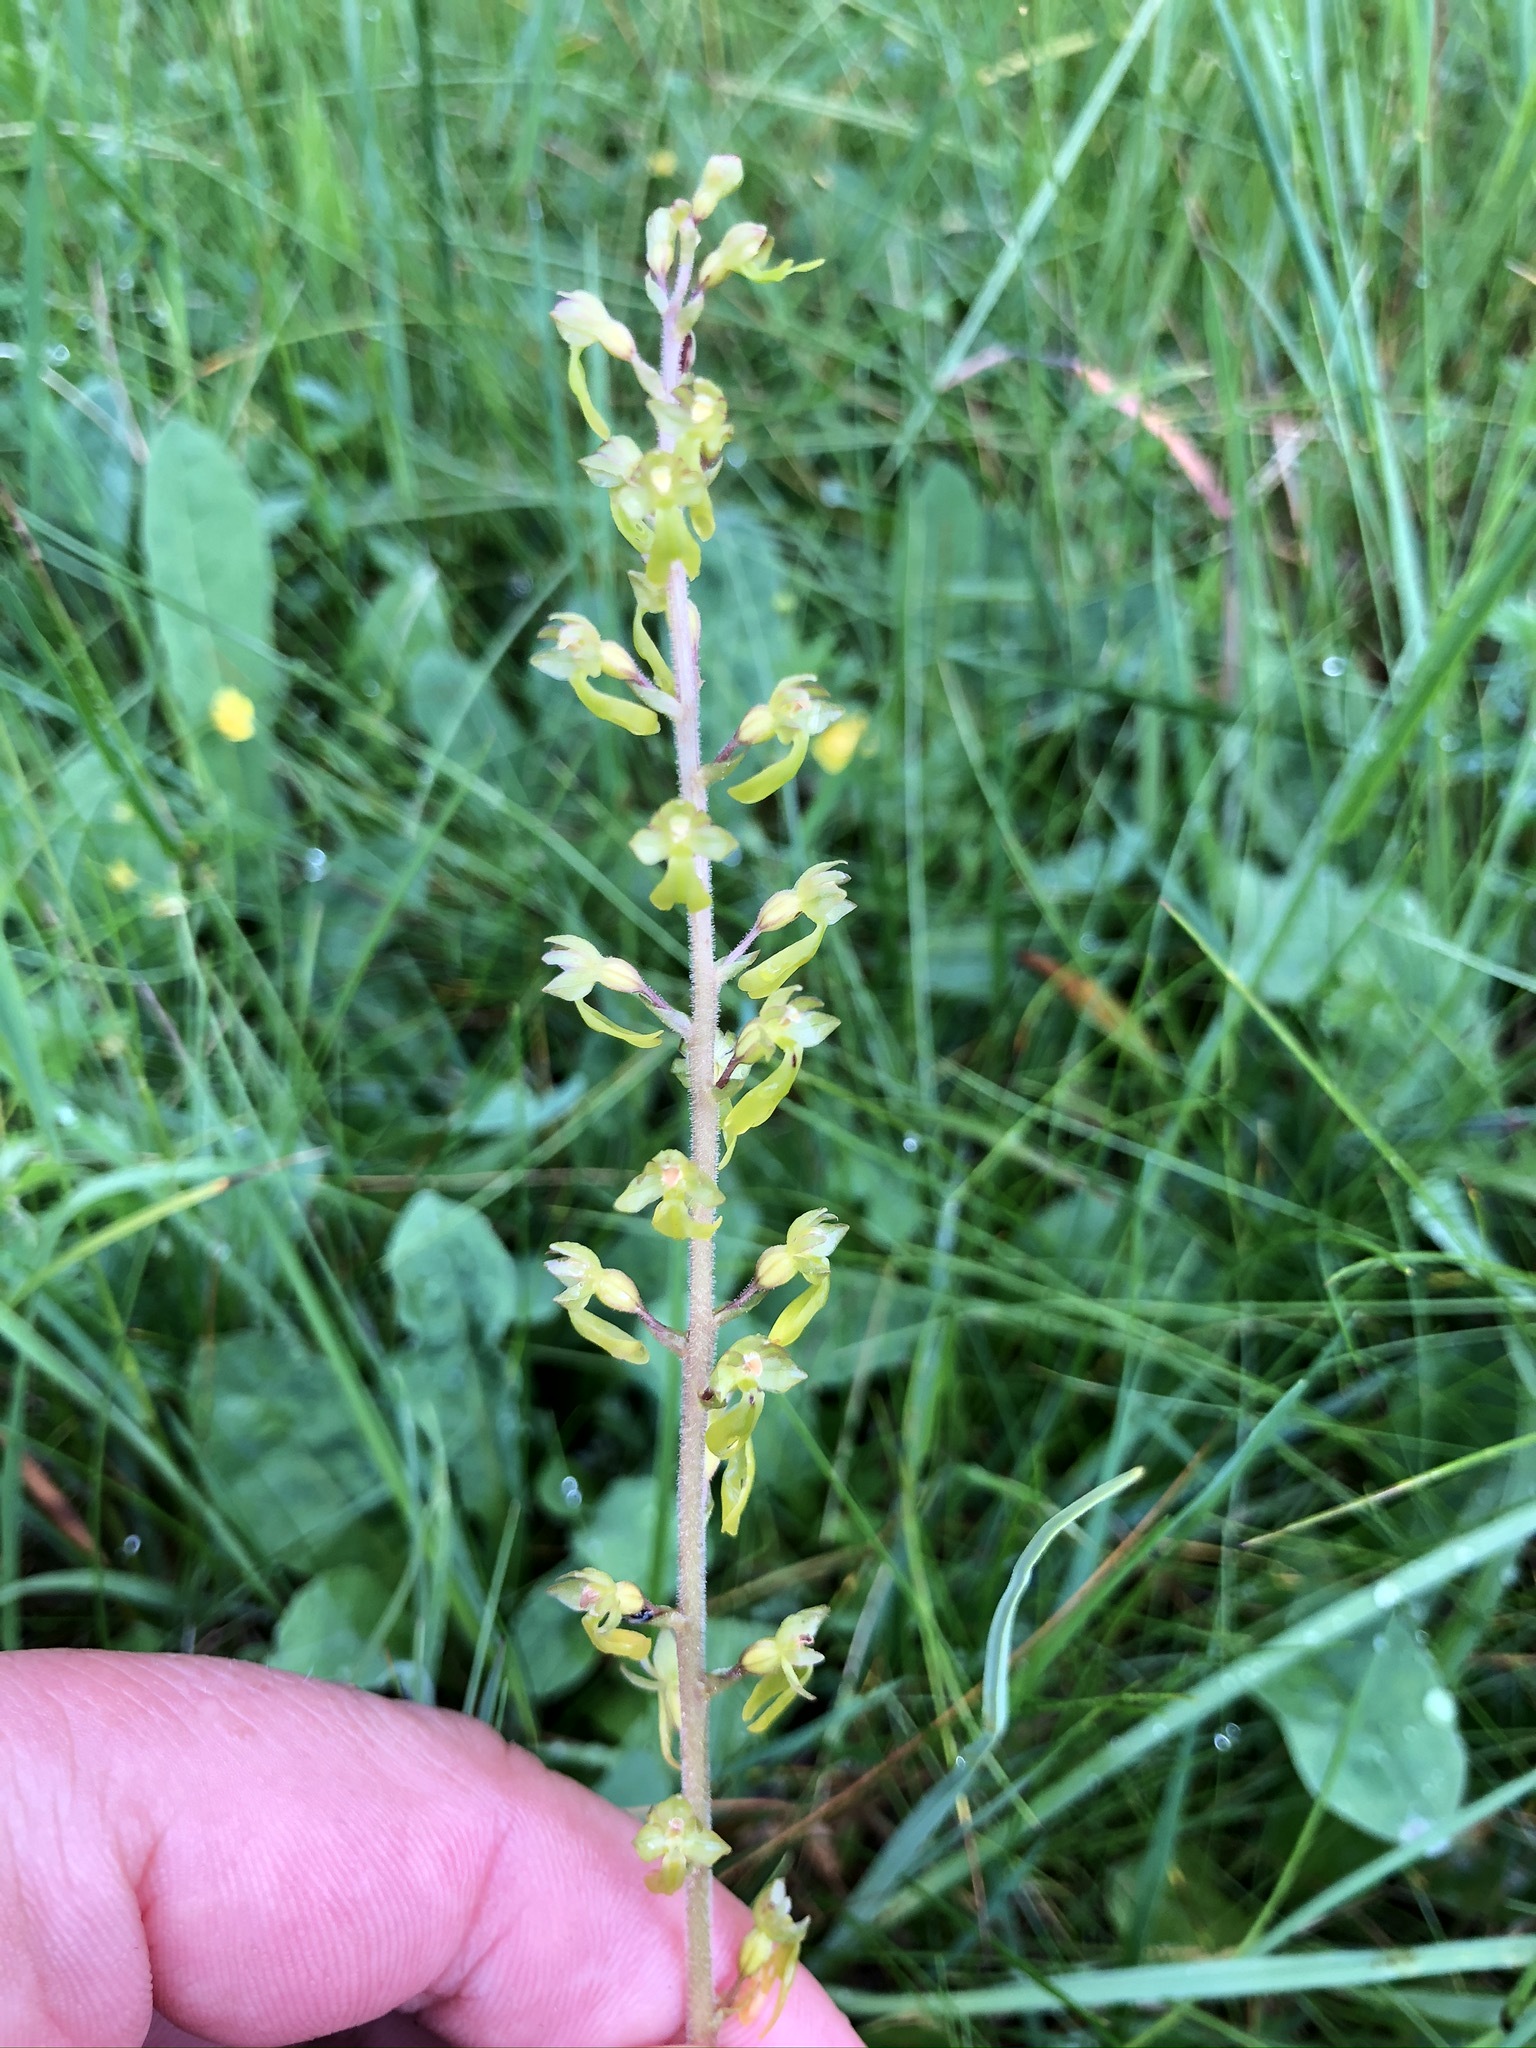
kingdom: Plantae
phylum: Tracheophyta
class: Liliopsida
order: Asparagales
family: Orchidaceae
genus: Neottia
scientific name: Neottia ovata
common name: Common twayblade
